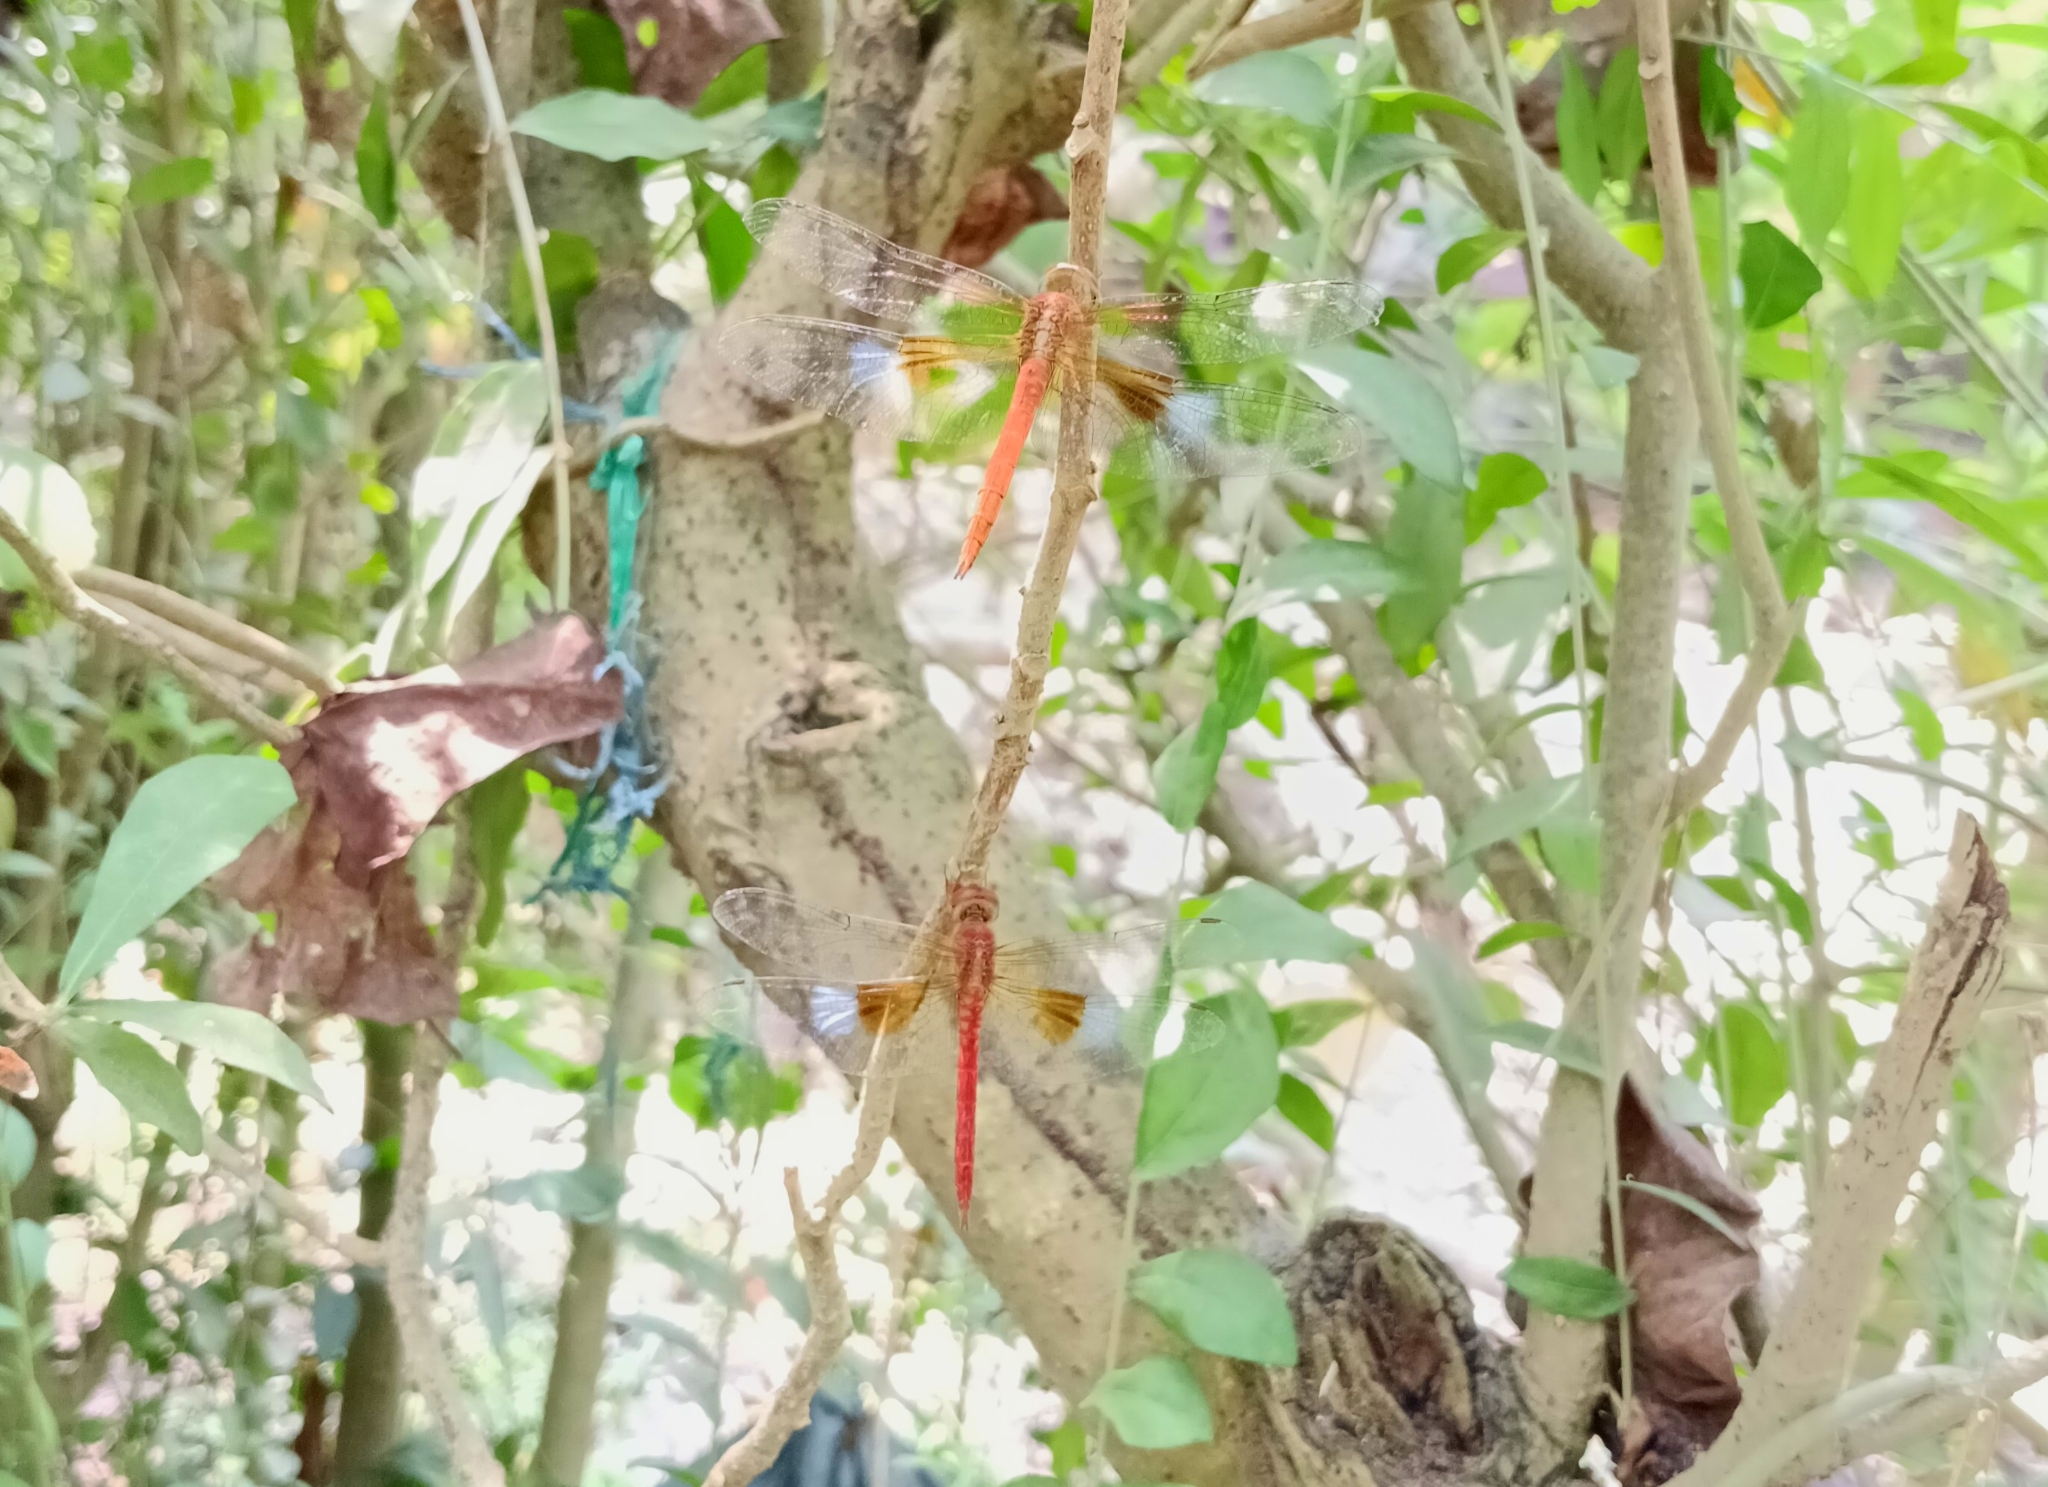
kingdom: Animalia
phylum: Arthropoda
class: Insecta
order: Odonata
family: Libellulidae
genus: Tholymis
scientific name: Tholymis tillarga
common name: Coral-tailed cloud wing
